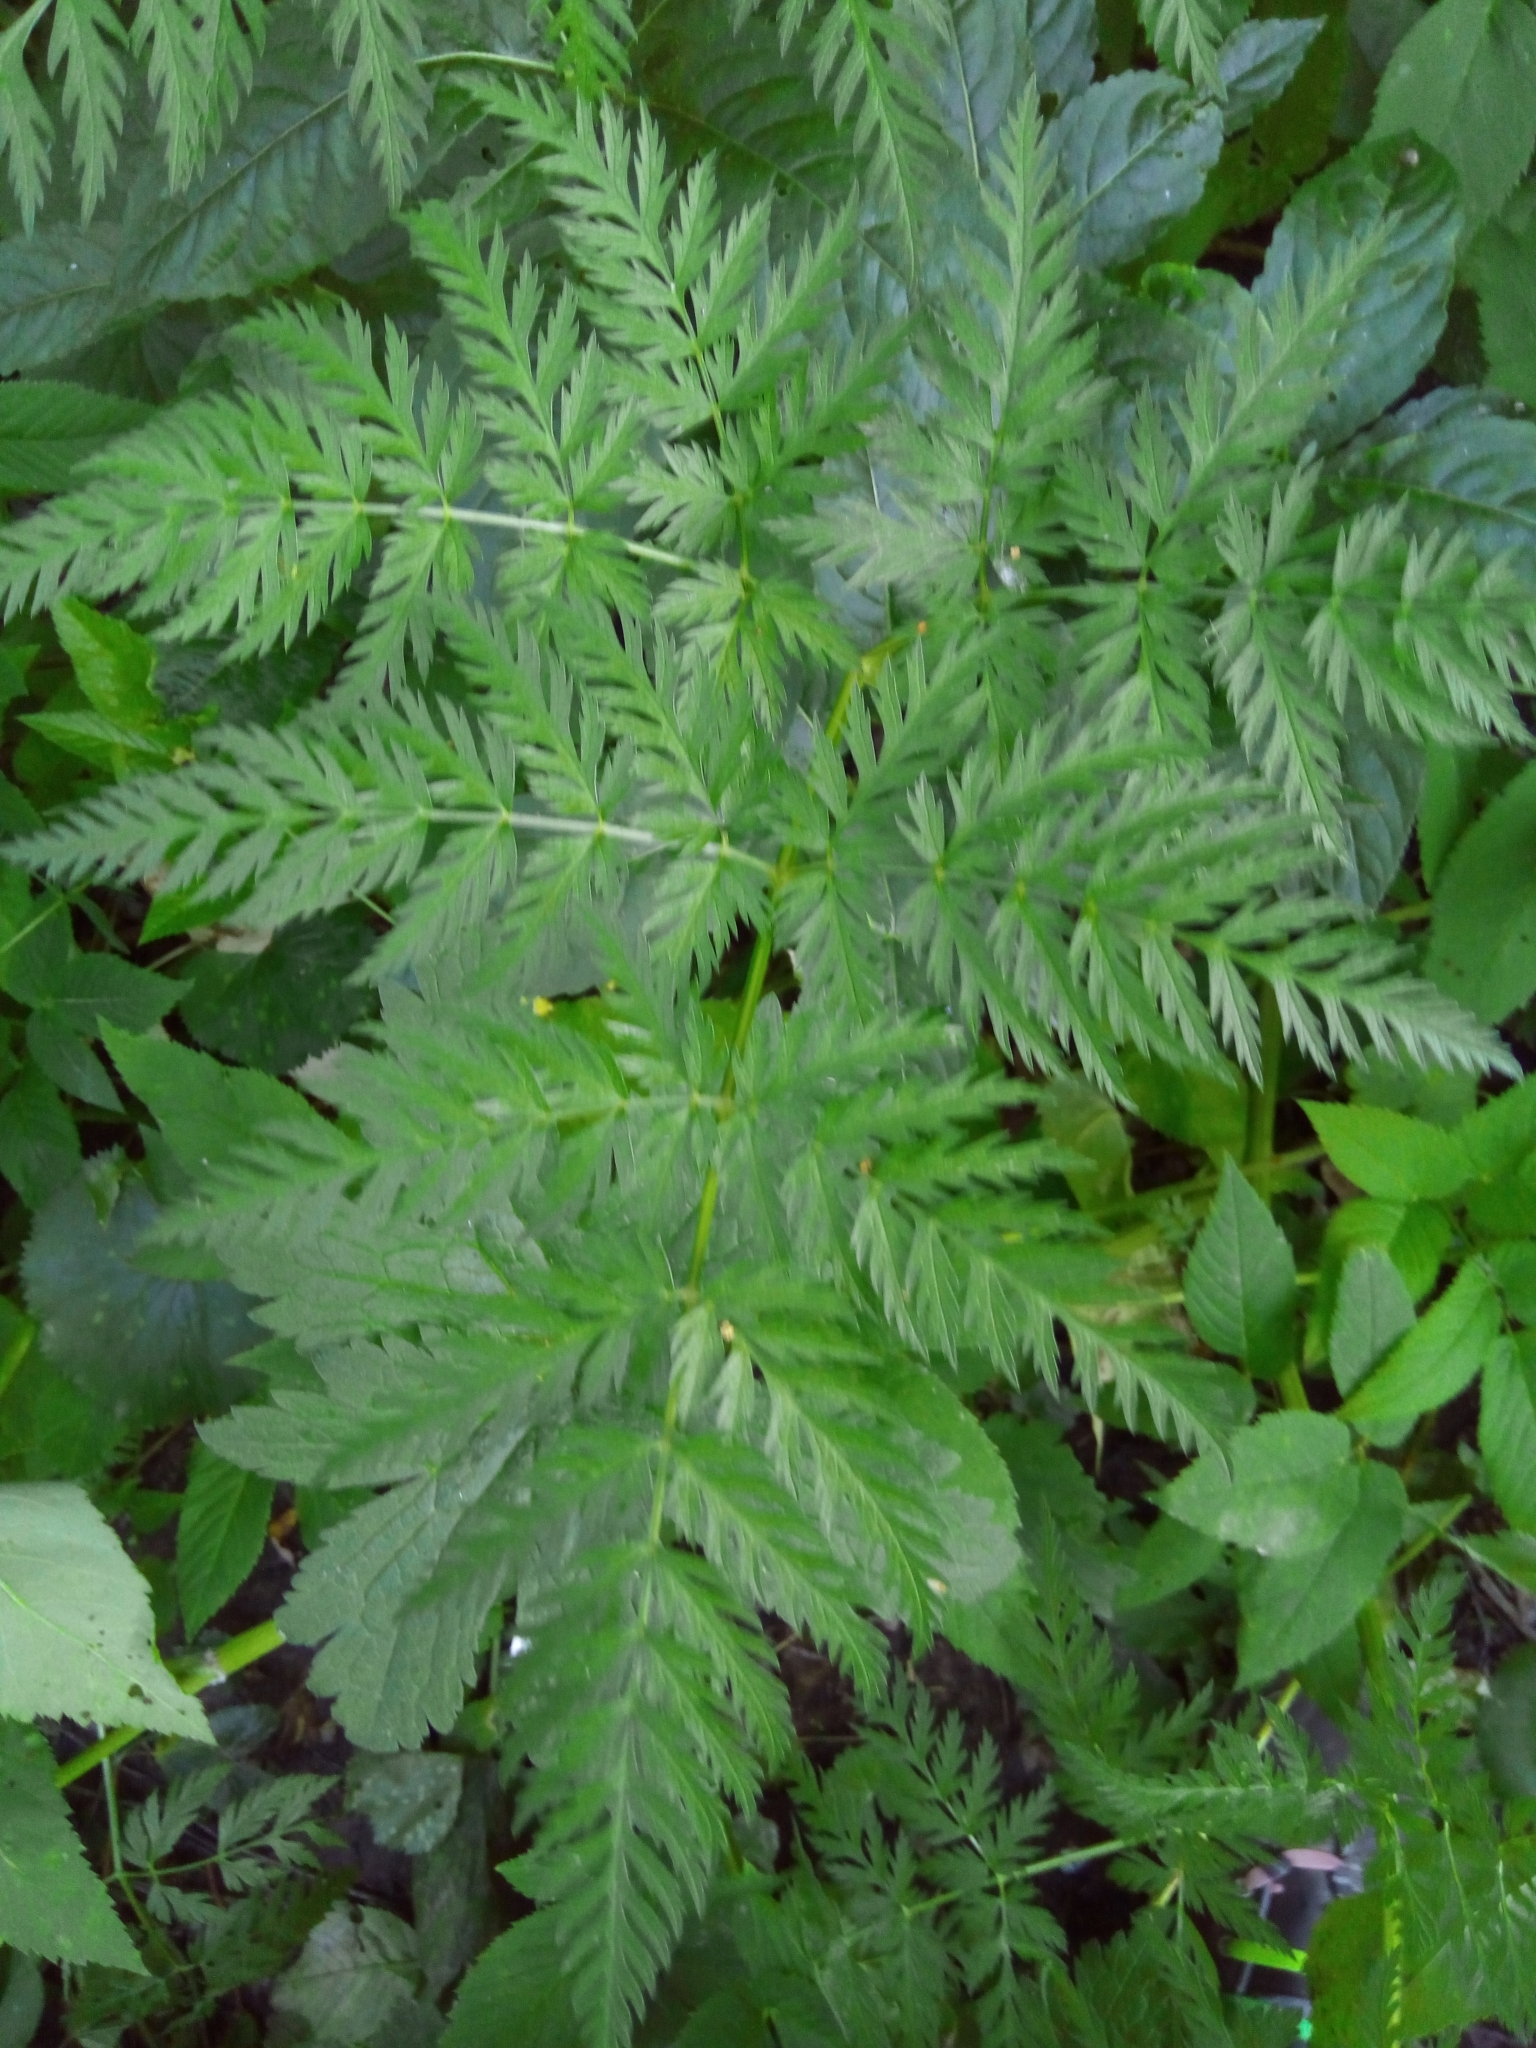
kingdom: Plantae
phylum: Tracheophyta
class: Magnoliopsida
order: Apiales
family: Apiaceae
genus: Anthriscus
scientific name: Anthriscus sylvestris
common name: Cow parsley
